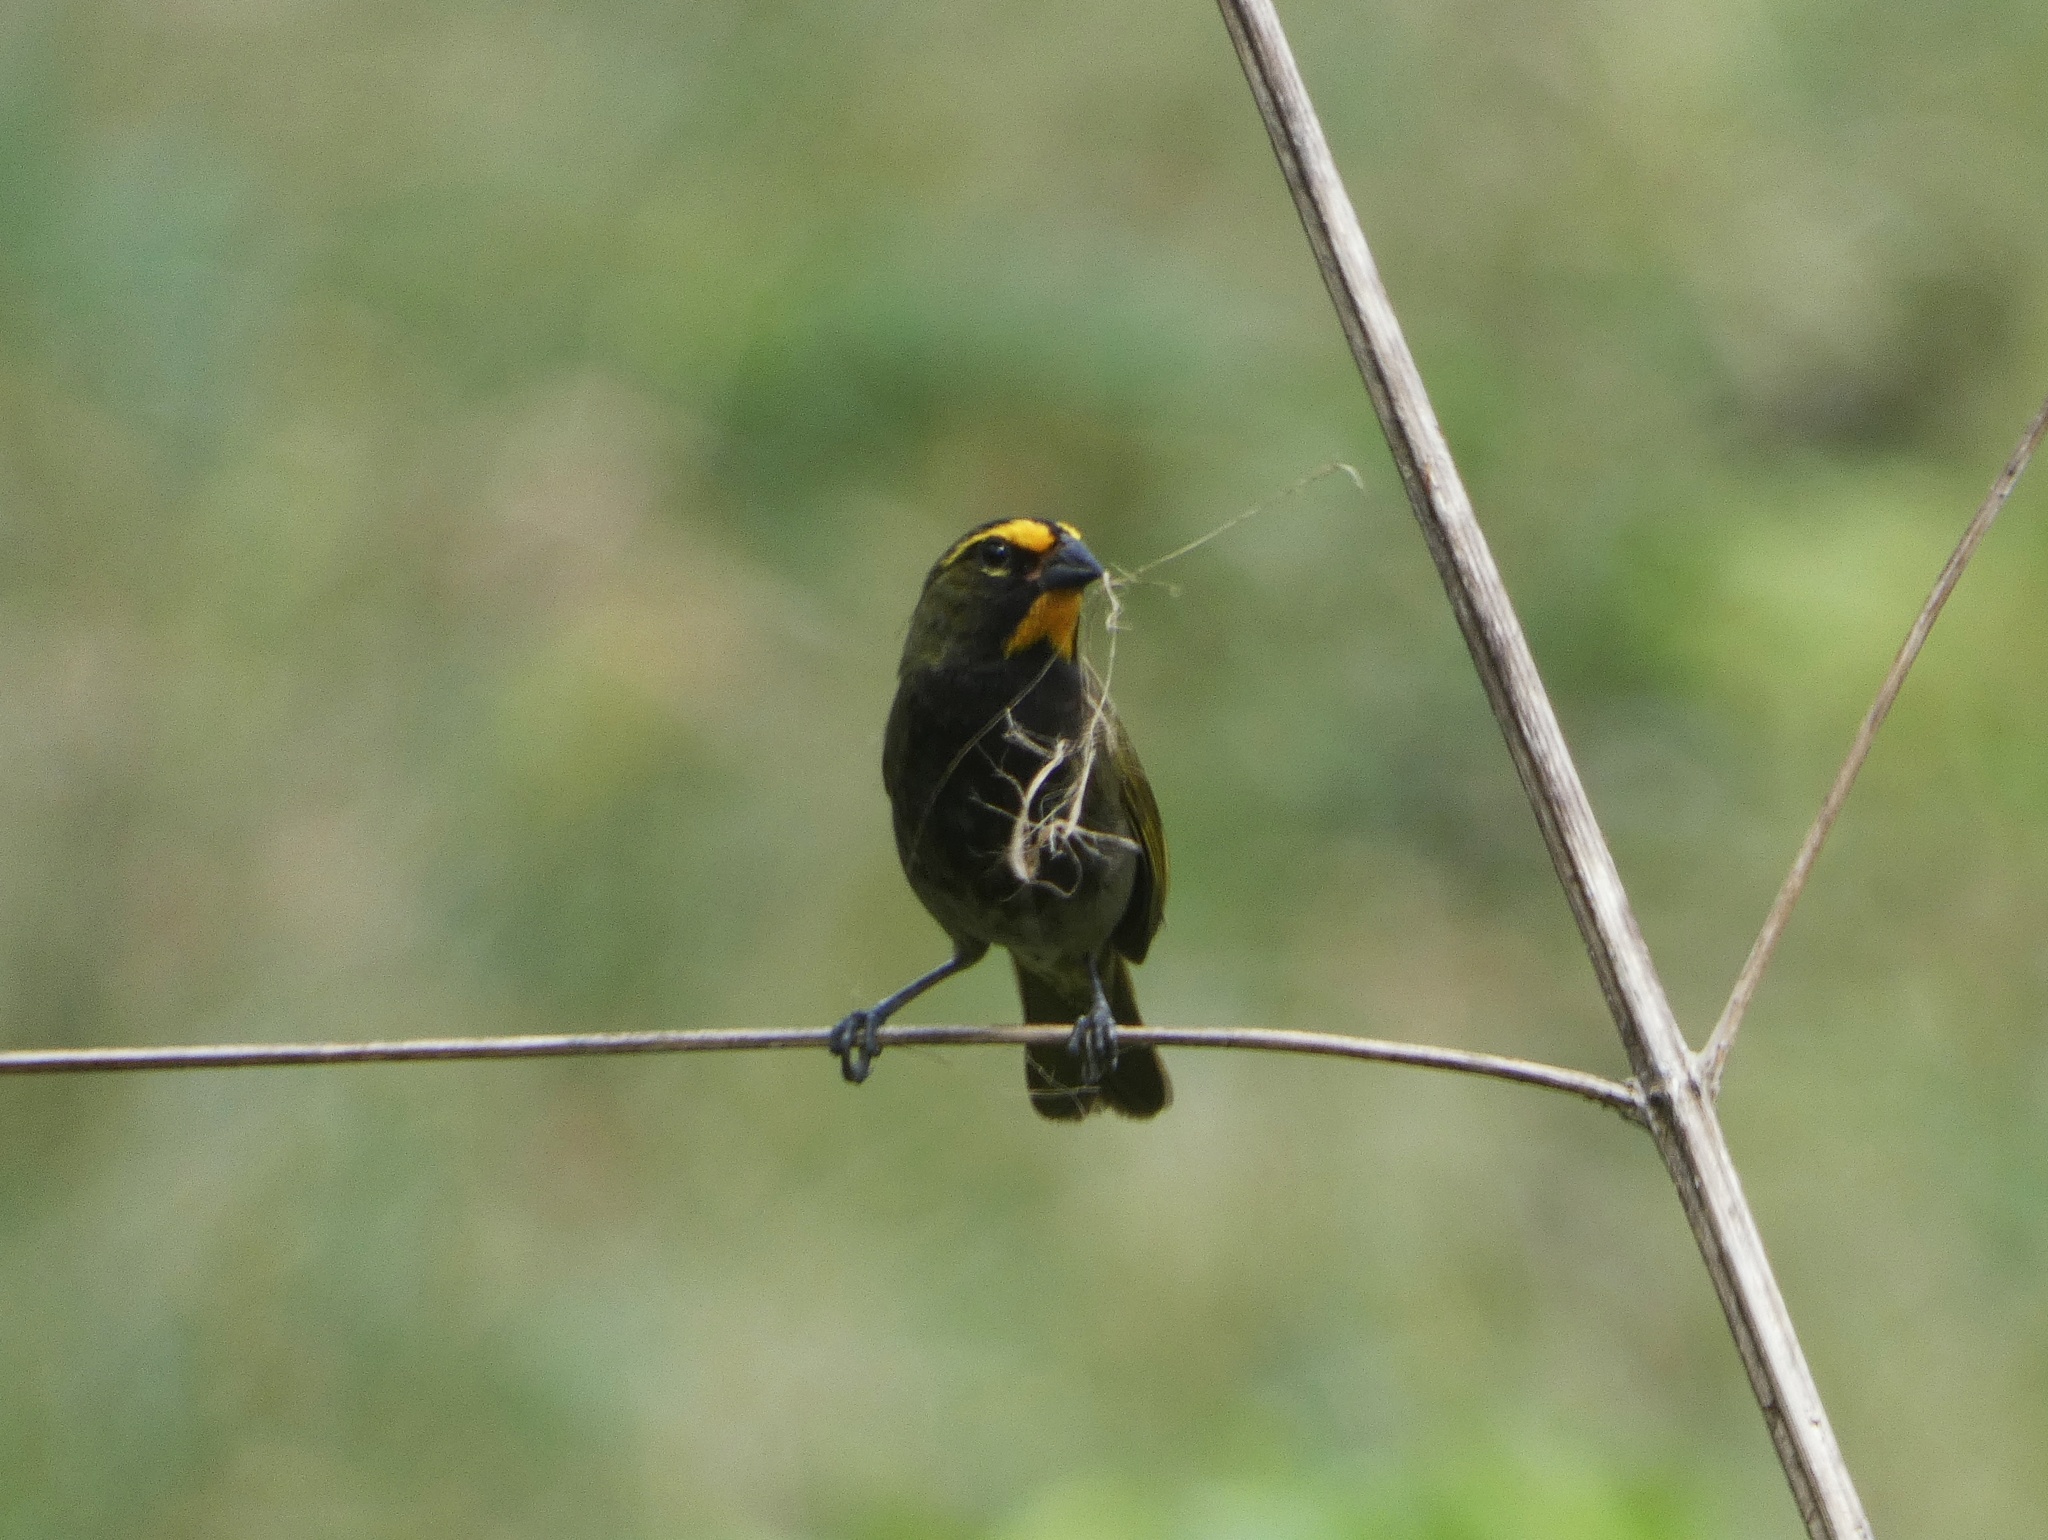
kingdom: Animalia
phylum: Chordata
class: Aves
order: Passeriformes
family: Thraupidae
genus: Tiaris
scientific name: Tiaris olivaceus
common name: Yellow-faced grassquit
